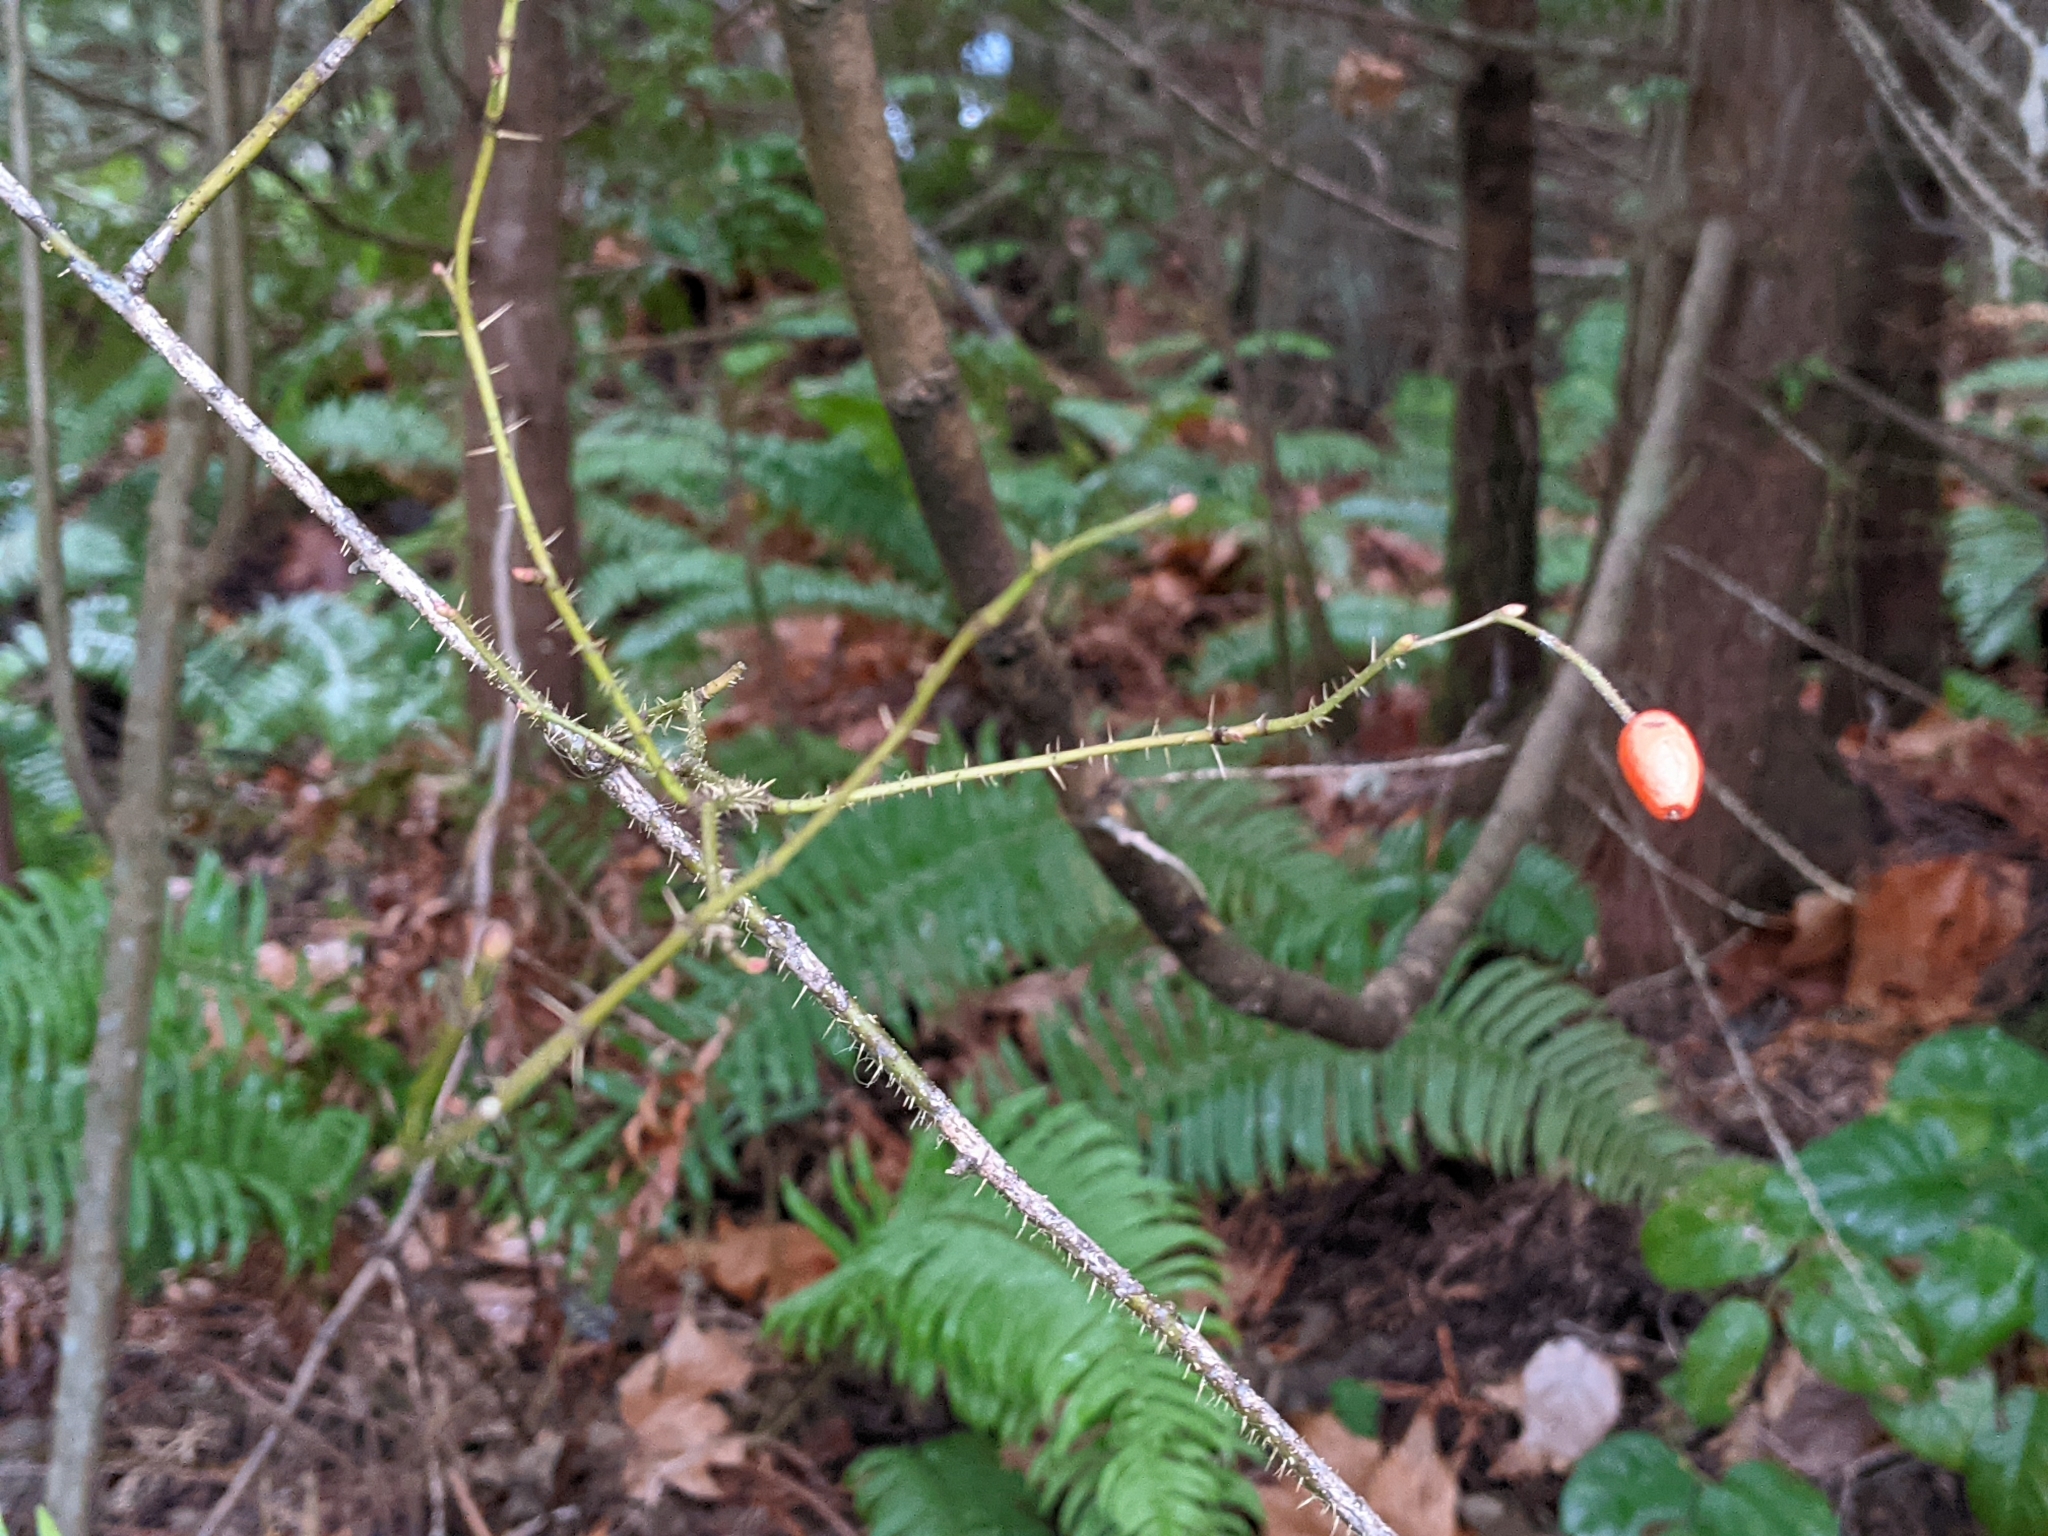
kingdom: Plantae
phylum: Tracheophyta
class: Magnoliopsida
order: Rosales
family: Rosaceae
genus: Rosa
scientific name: Rosa gymnocarpa
